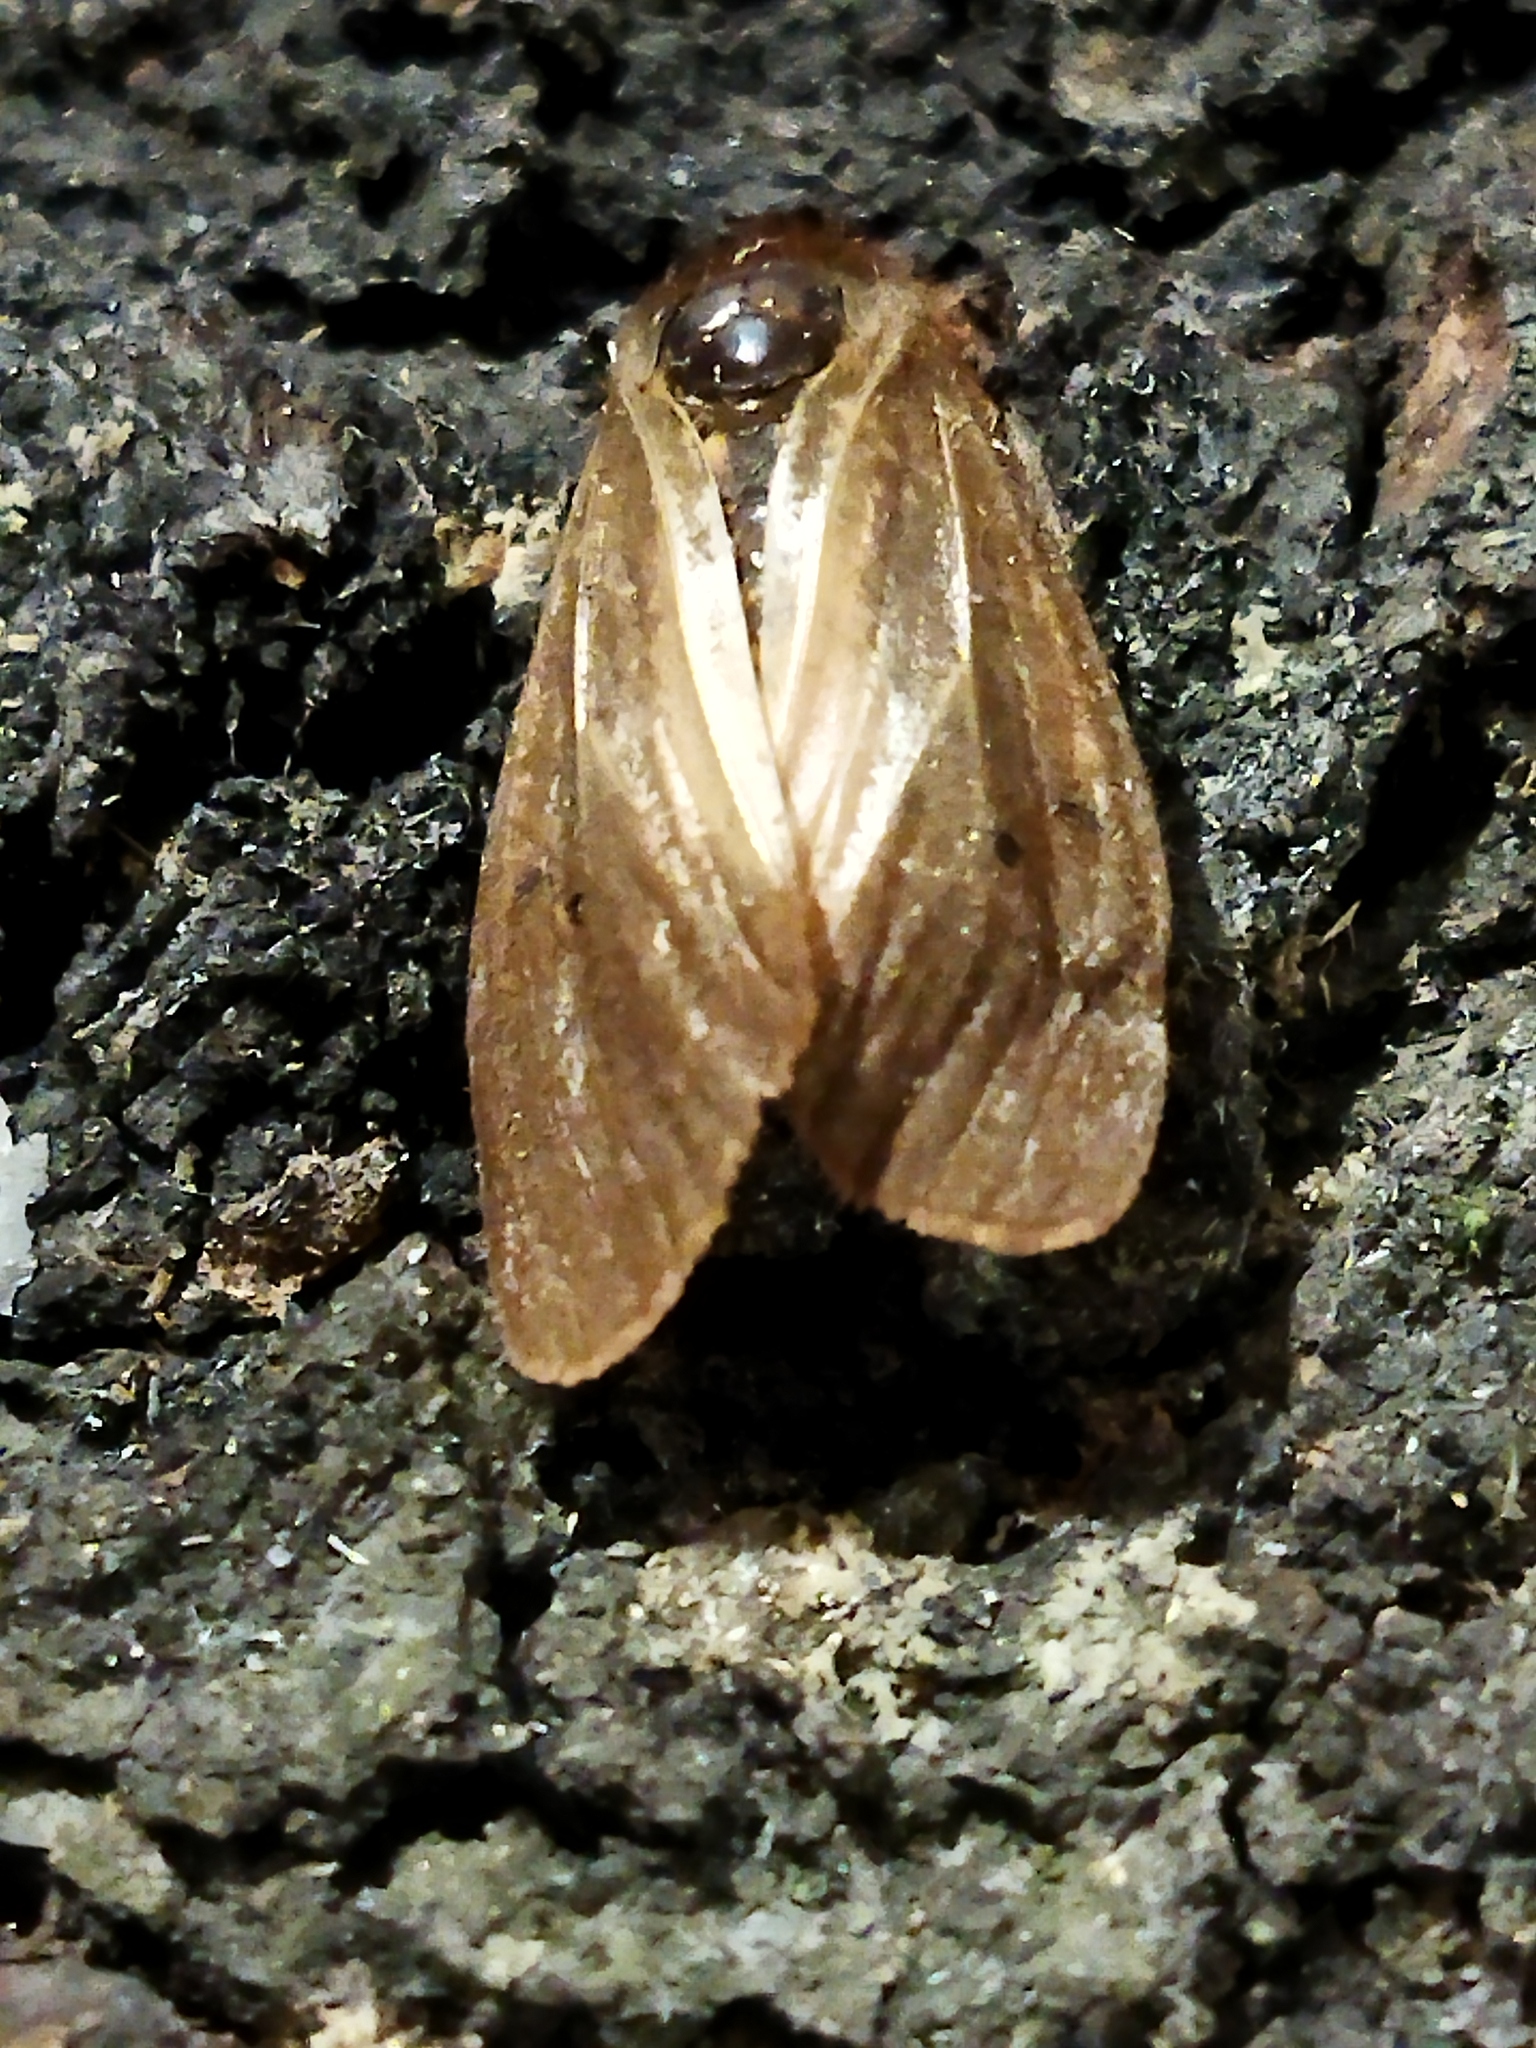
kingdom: Animalia
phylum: Arthropoda
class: Insecta
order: Lepidoptera
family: Erebidae
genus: Phragmatobia
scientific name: Phragmatobia fuliginosa
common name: Ruby tiger
